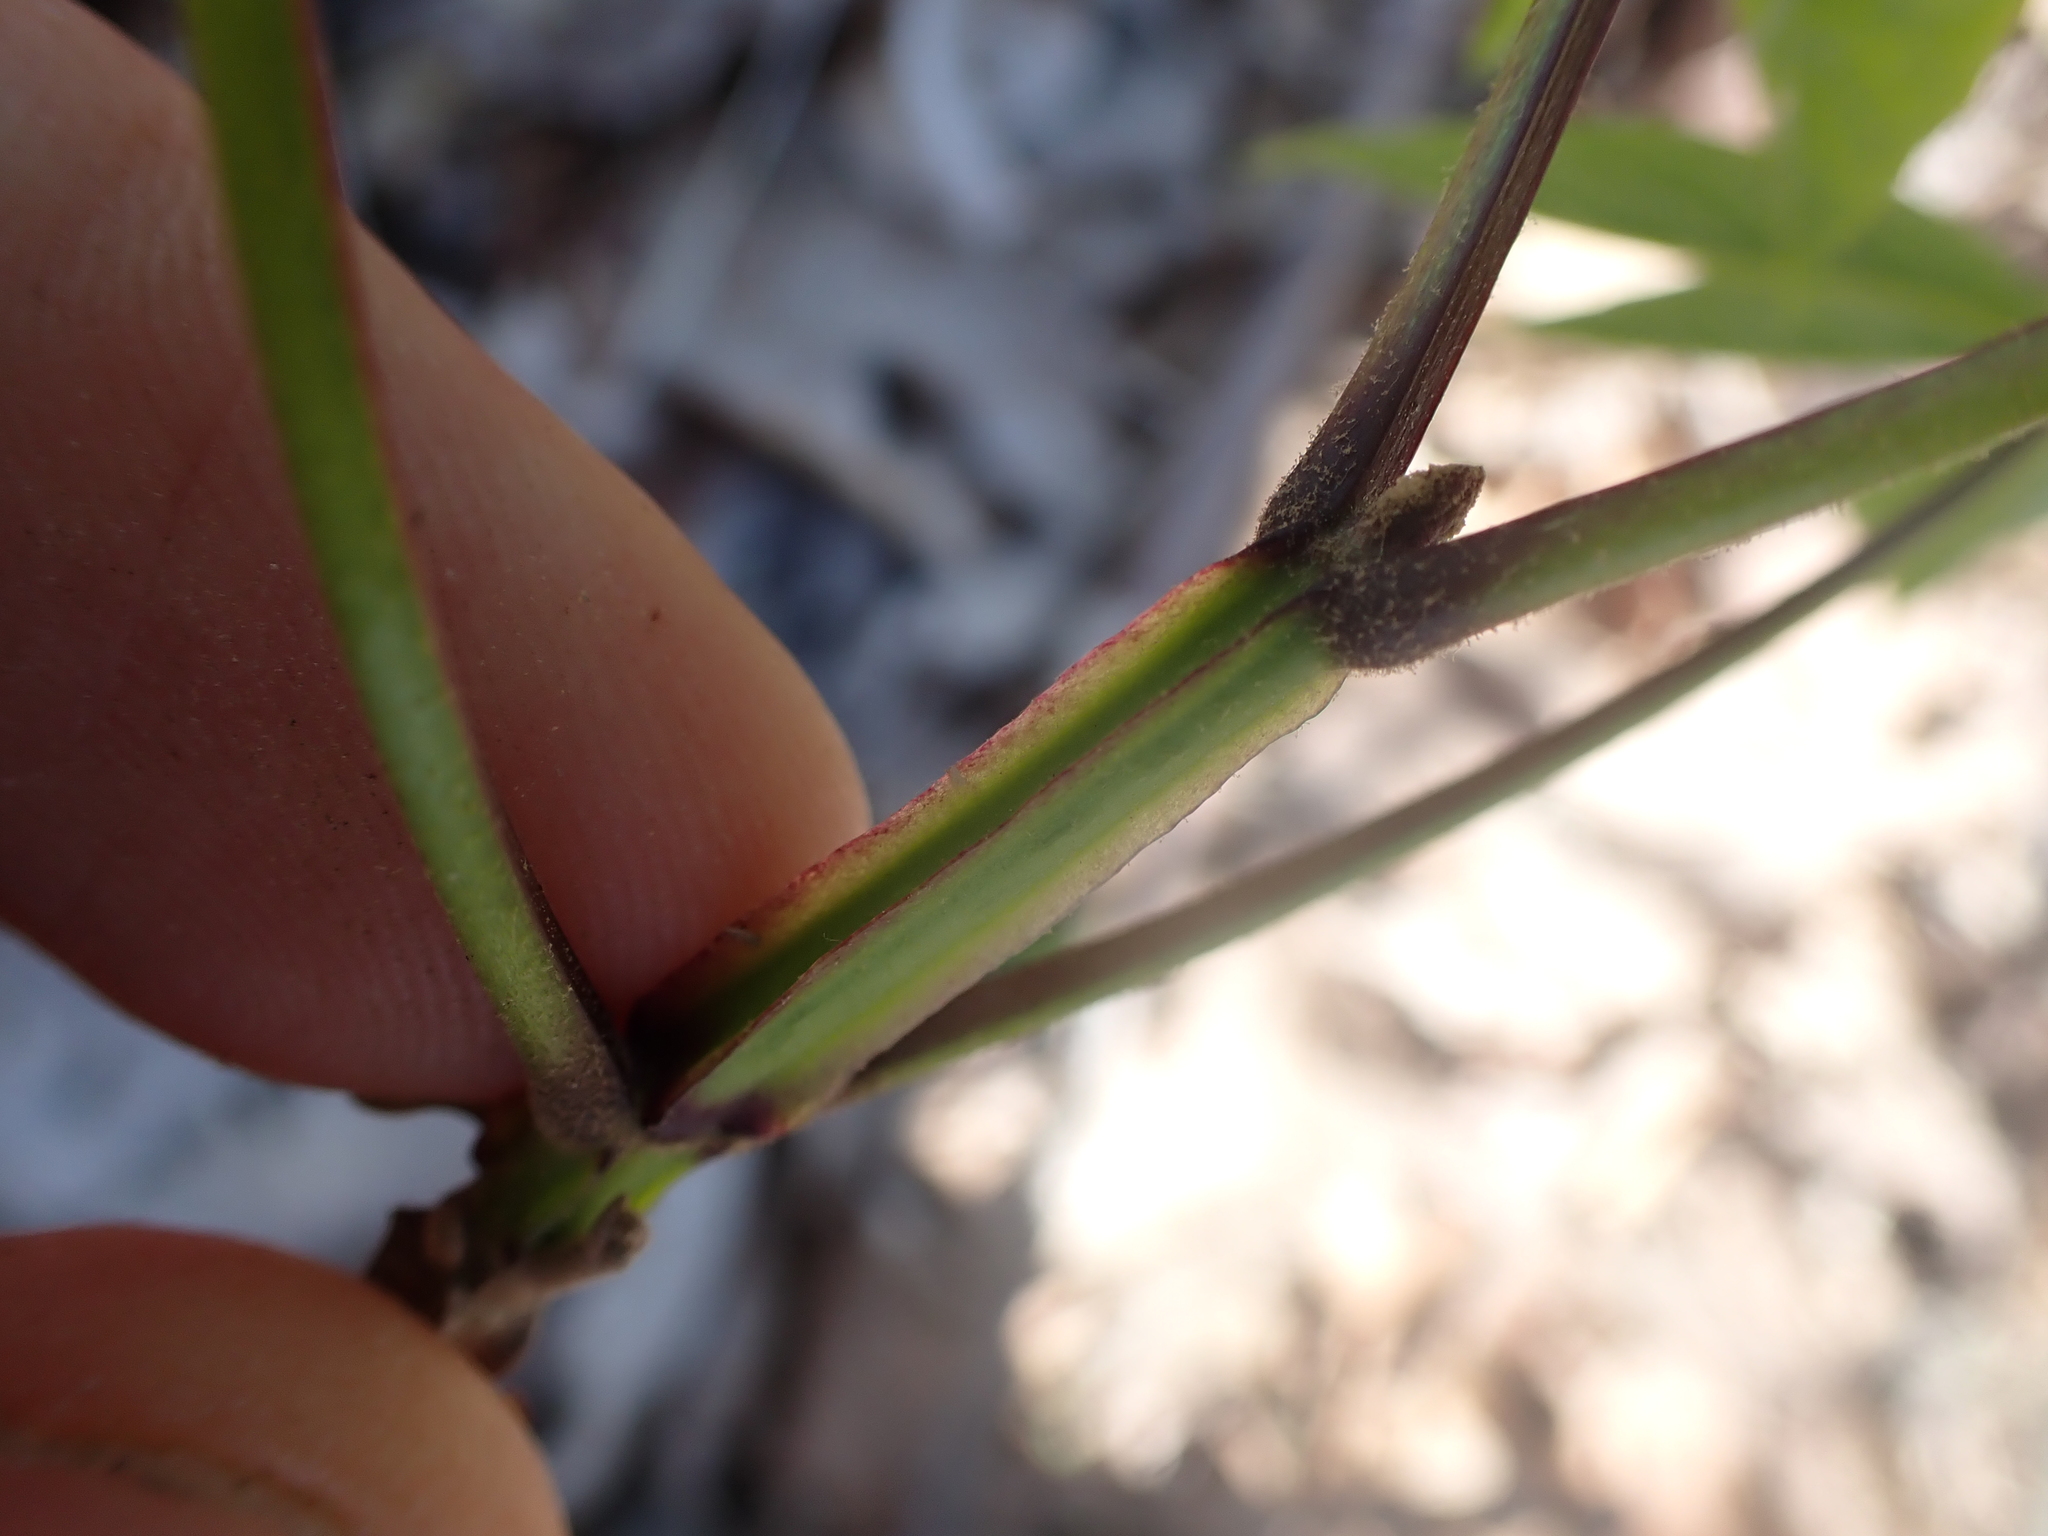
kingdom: Plantae
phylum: Tracheophyta
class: Magnoliopsida
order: Lamiales
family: Oleaceae
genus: Fraxinus
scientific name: Fraxinus quadrangulata
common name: Blue ash
